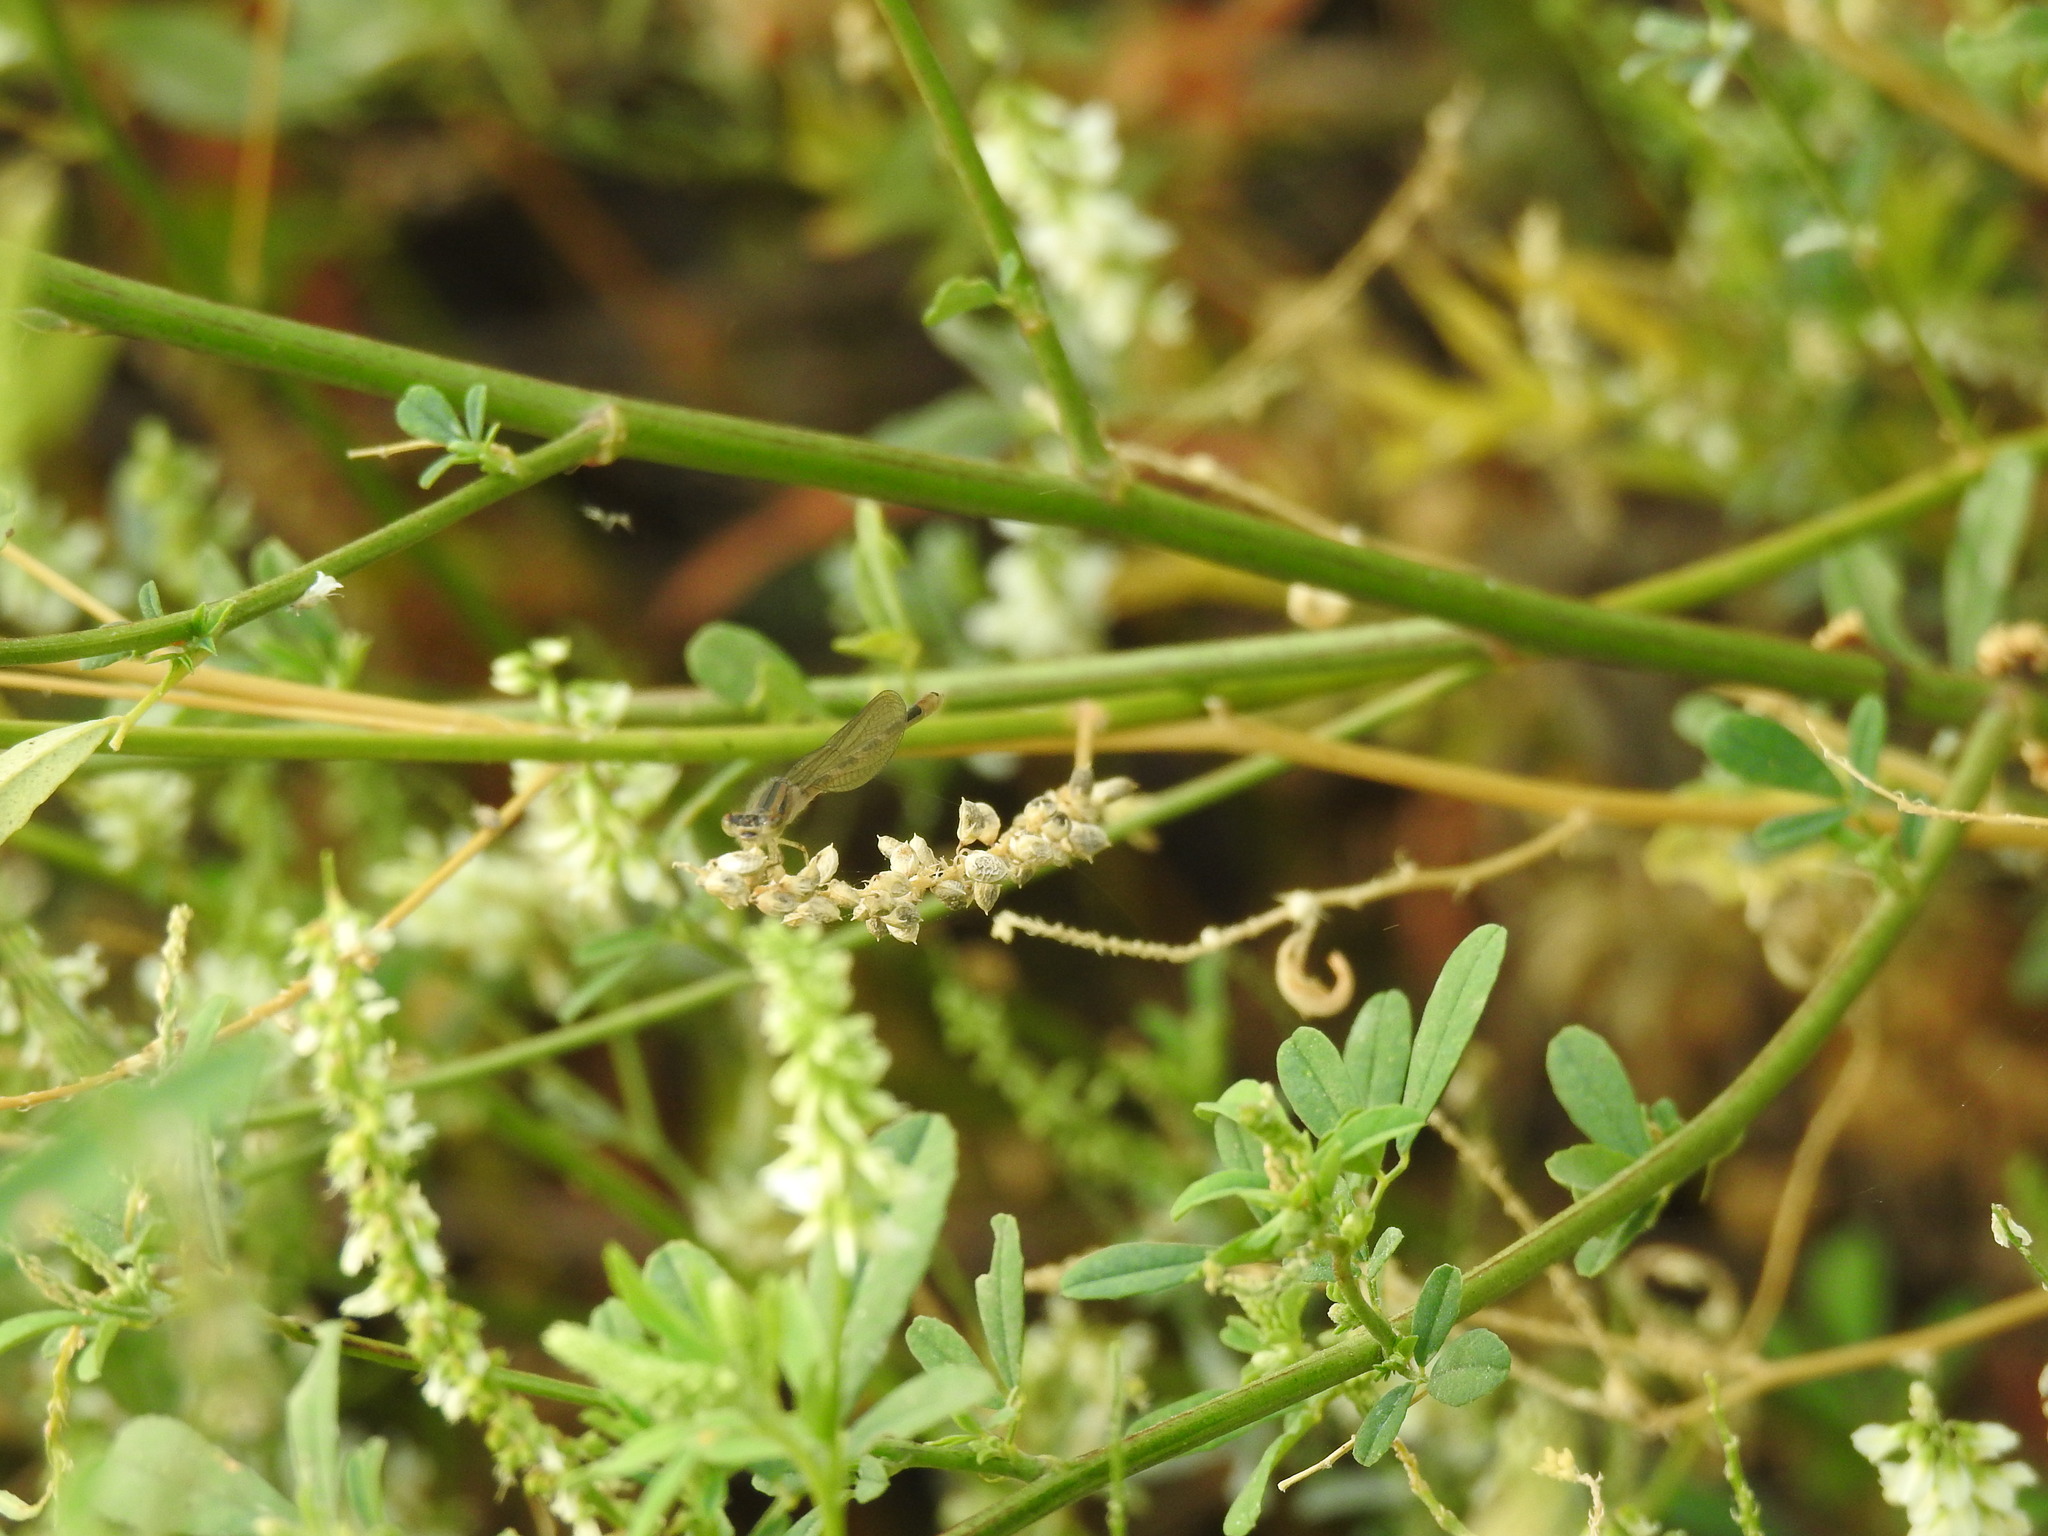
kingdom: Plantae
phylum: Tracheophyta
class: Magnoliopsida
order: Fabales
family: Fabaceae
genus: Melilotus
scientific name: Melilotus albus
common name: White melilot
